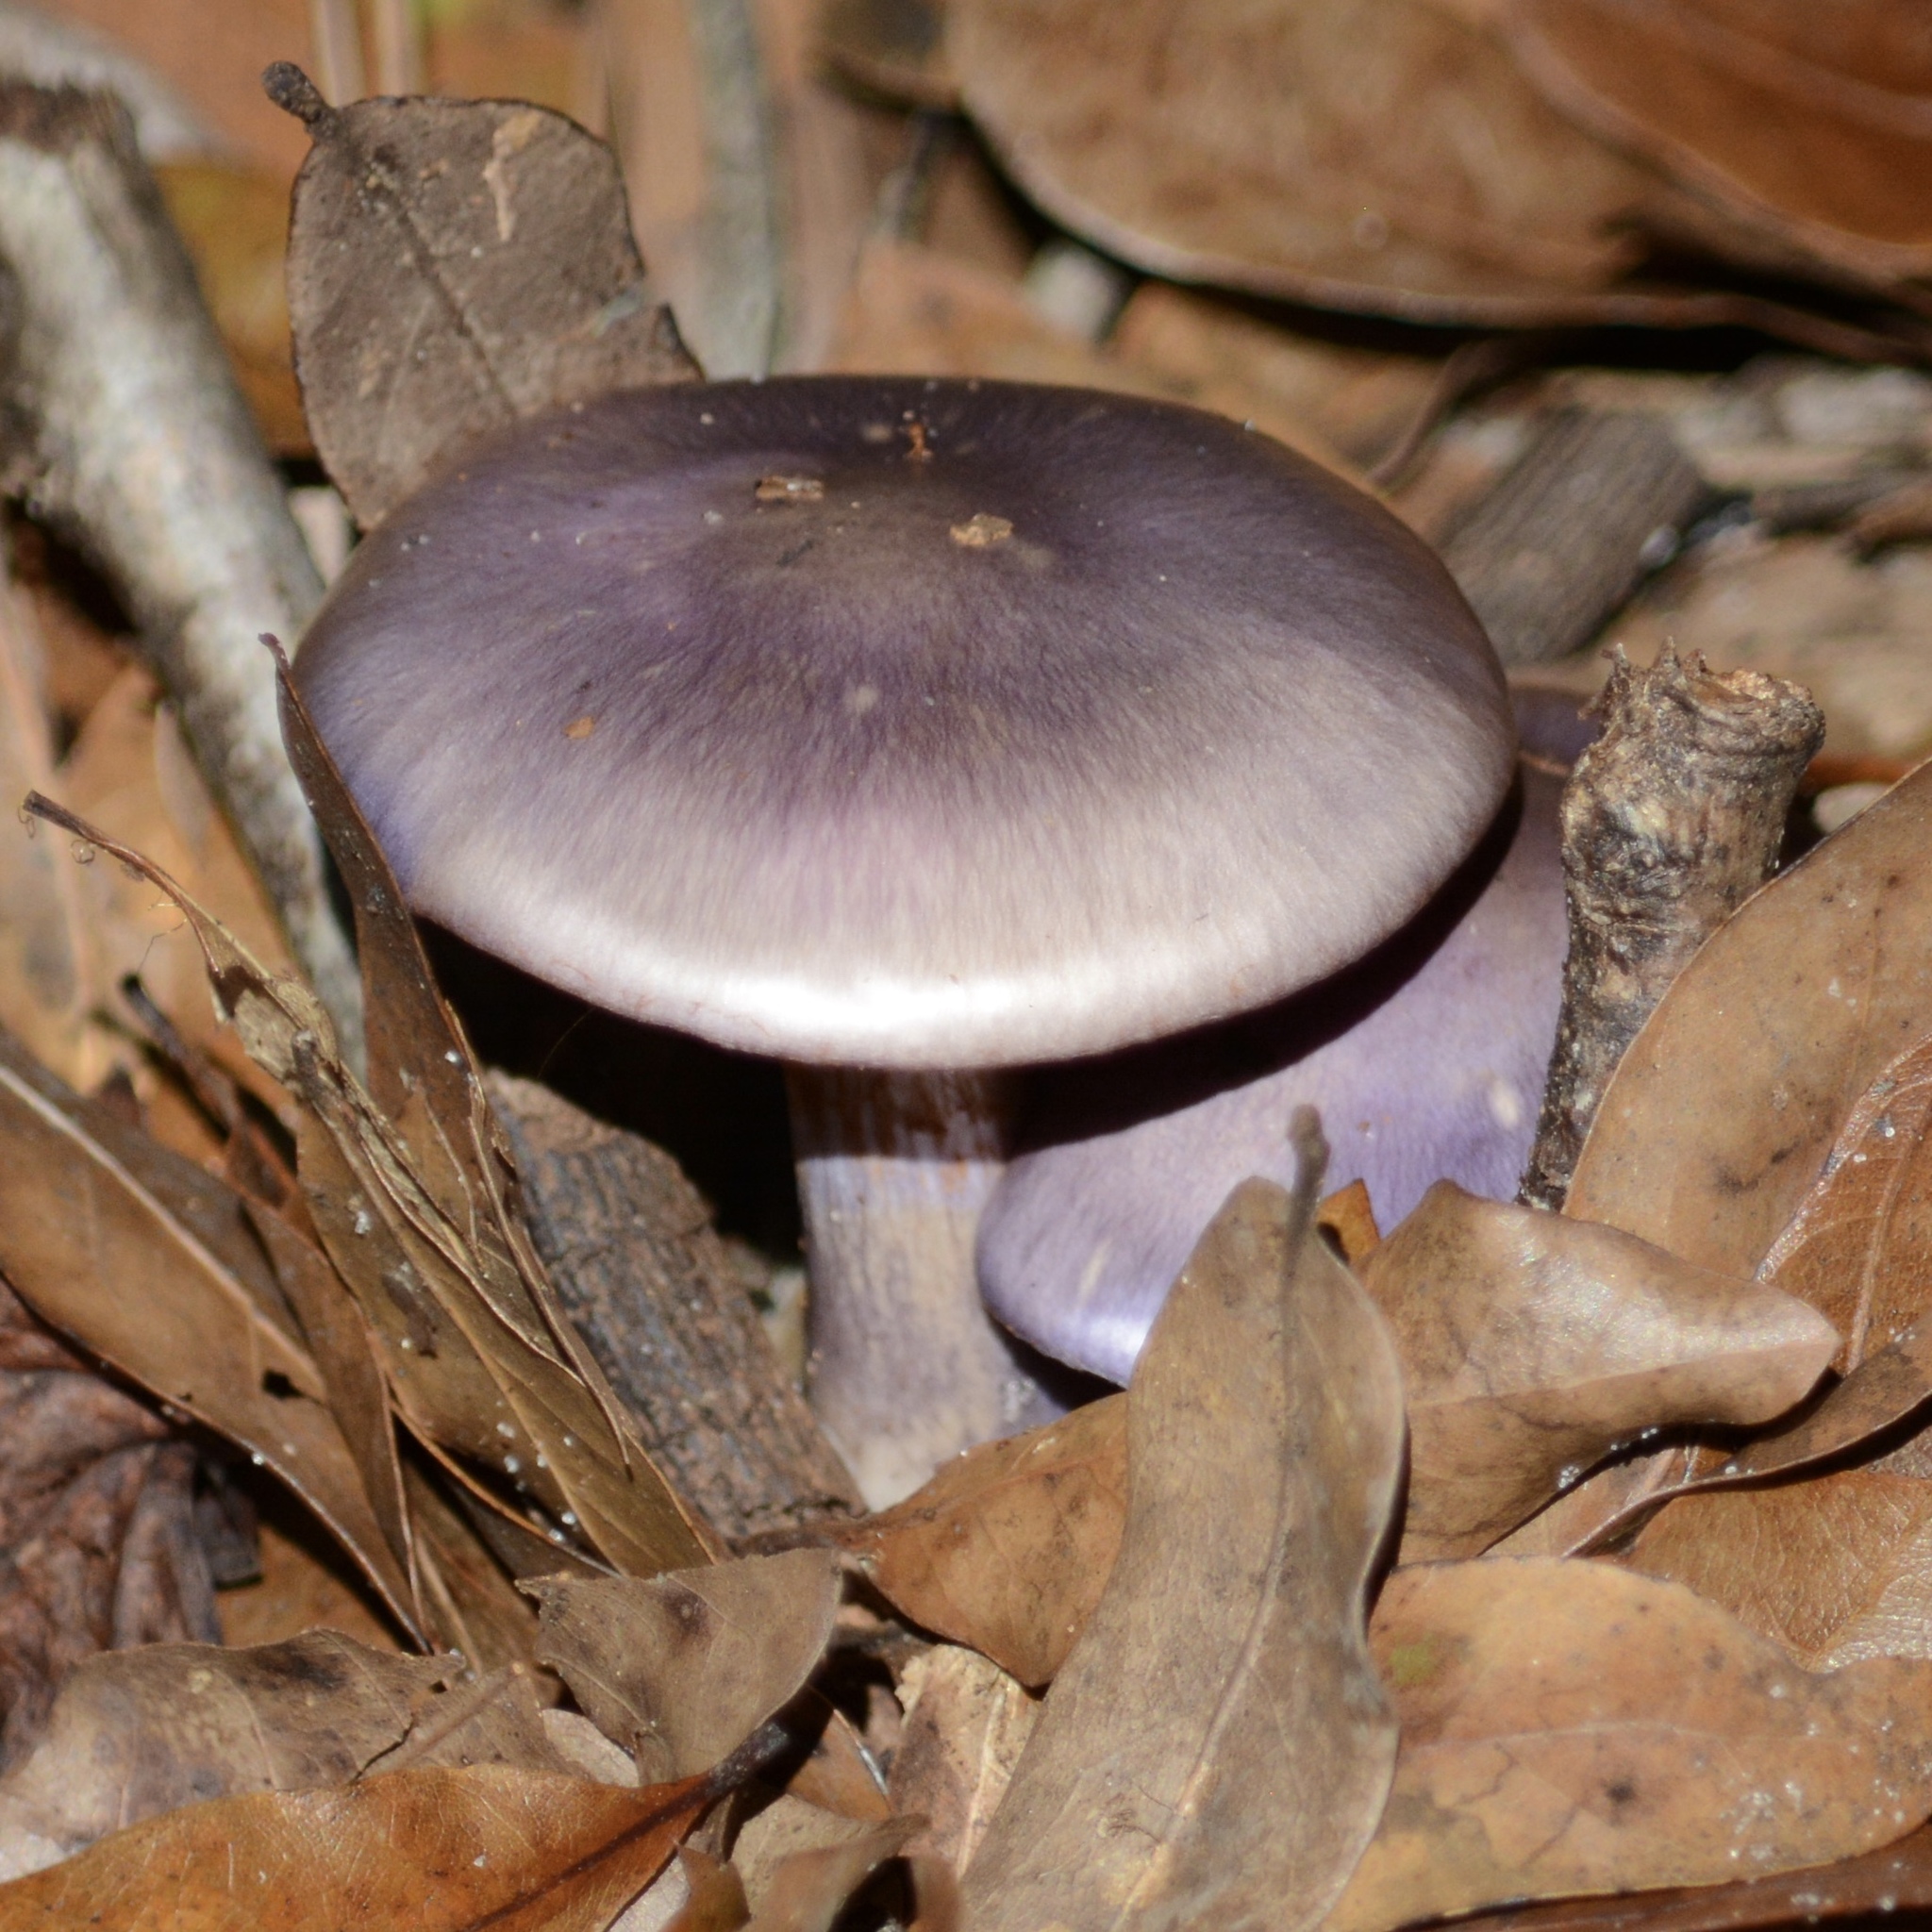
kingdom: Fungi
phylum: Basidiomycota
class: Agaricomycetes
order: Agaricales
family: Cortinariaceae
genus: Cortinarius
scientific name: Cortinarius iodes
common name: Viscid violet cort
